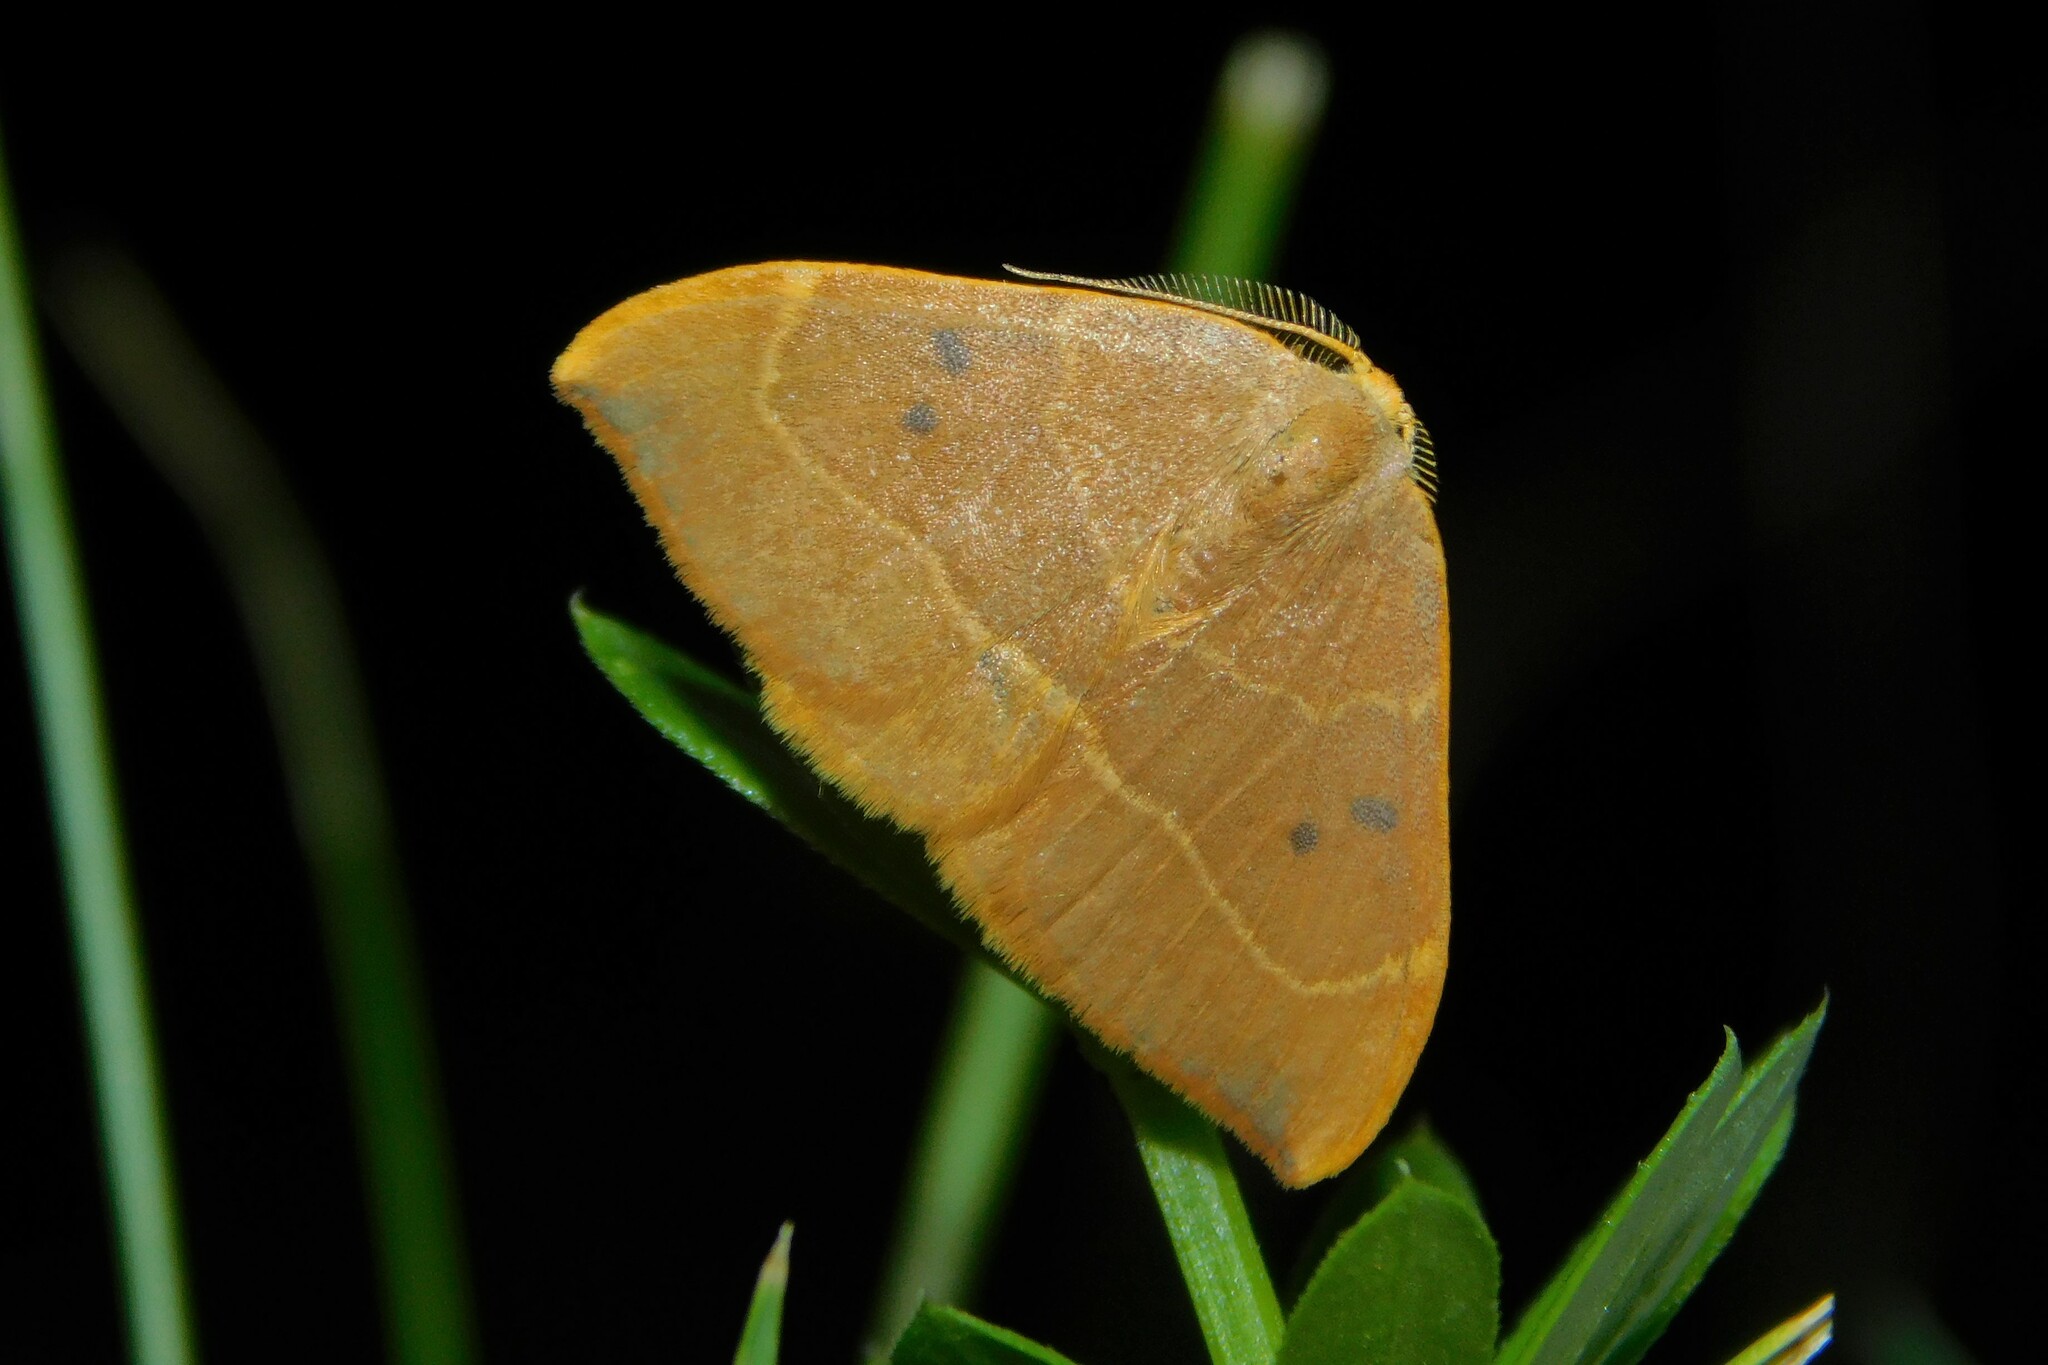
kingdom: Animalia
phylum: Arthropoda
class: Insecta
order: Lepidoptera
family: Drepanidae
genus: Watsonalla
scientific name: Watsonalla binaria
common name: Oak hook-tip
